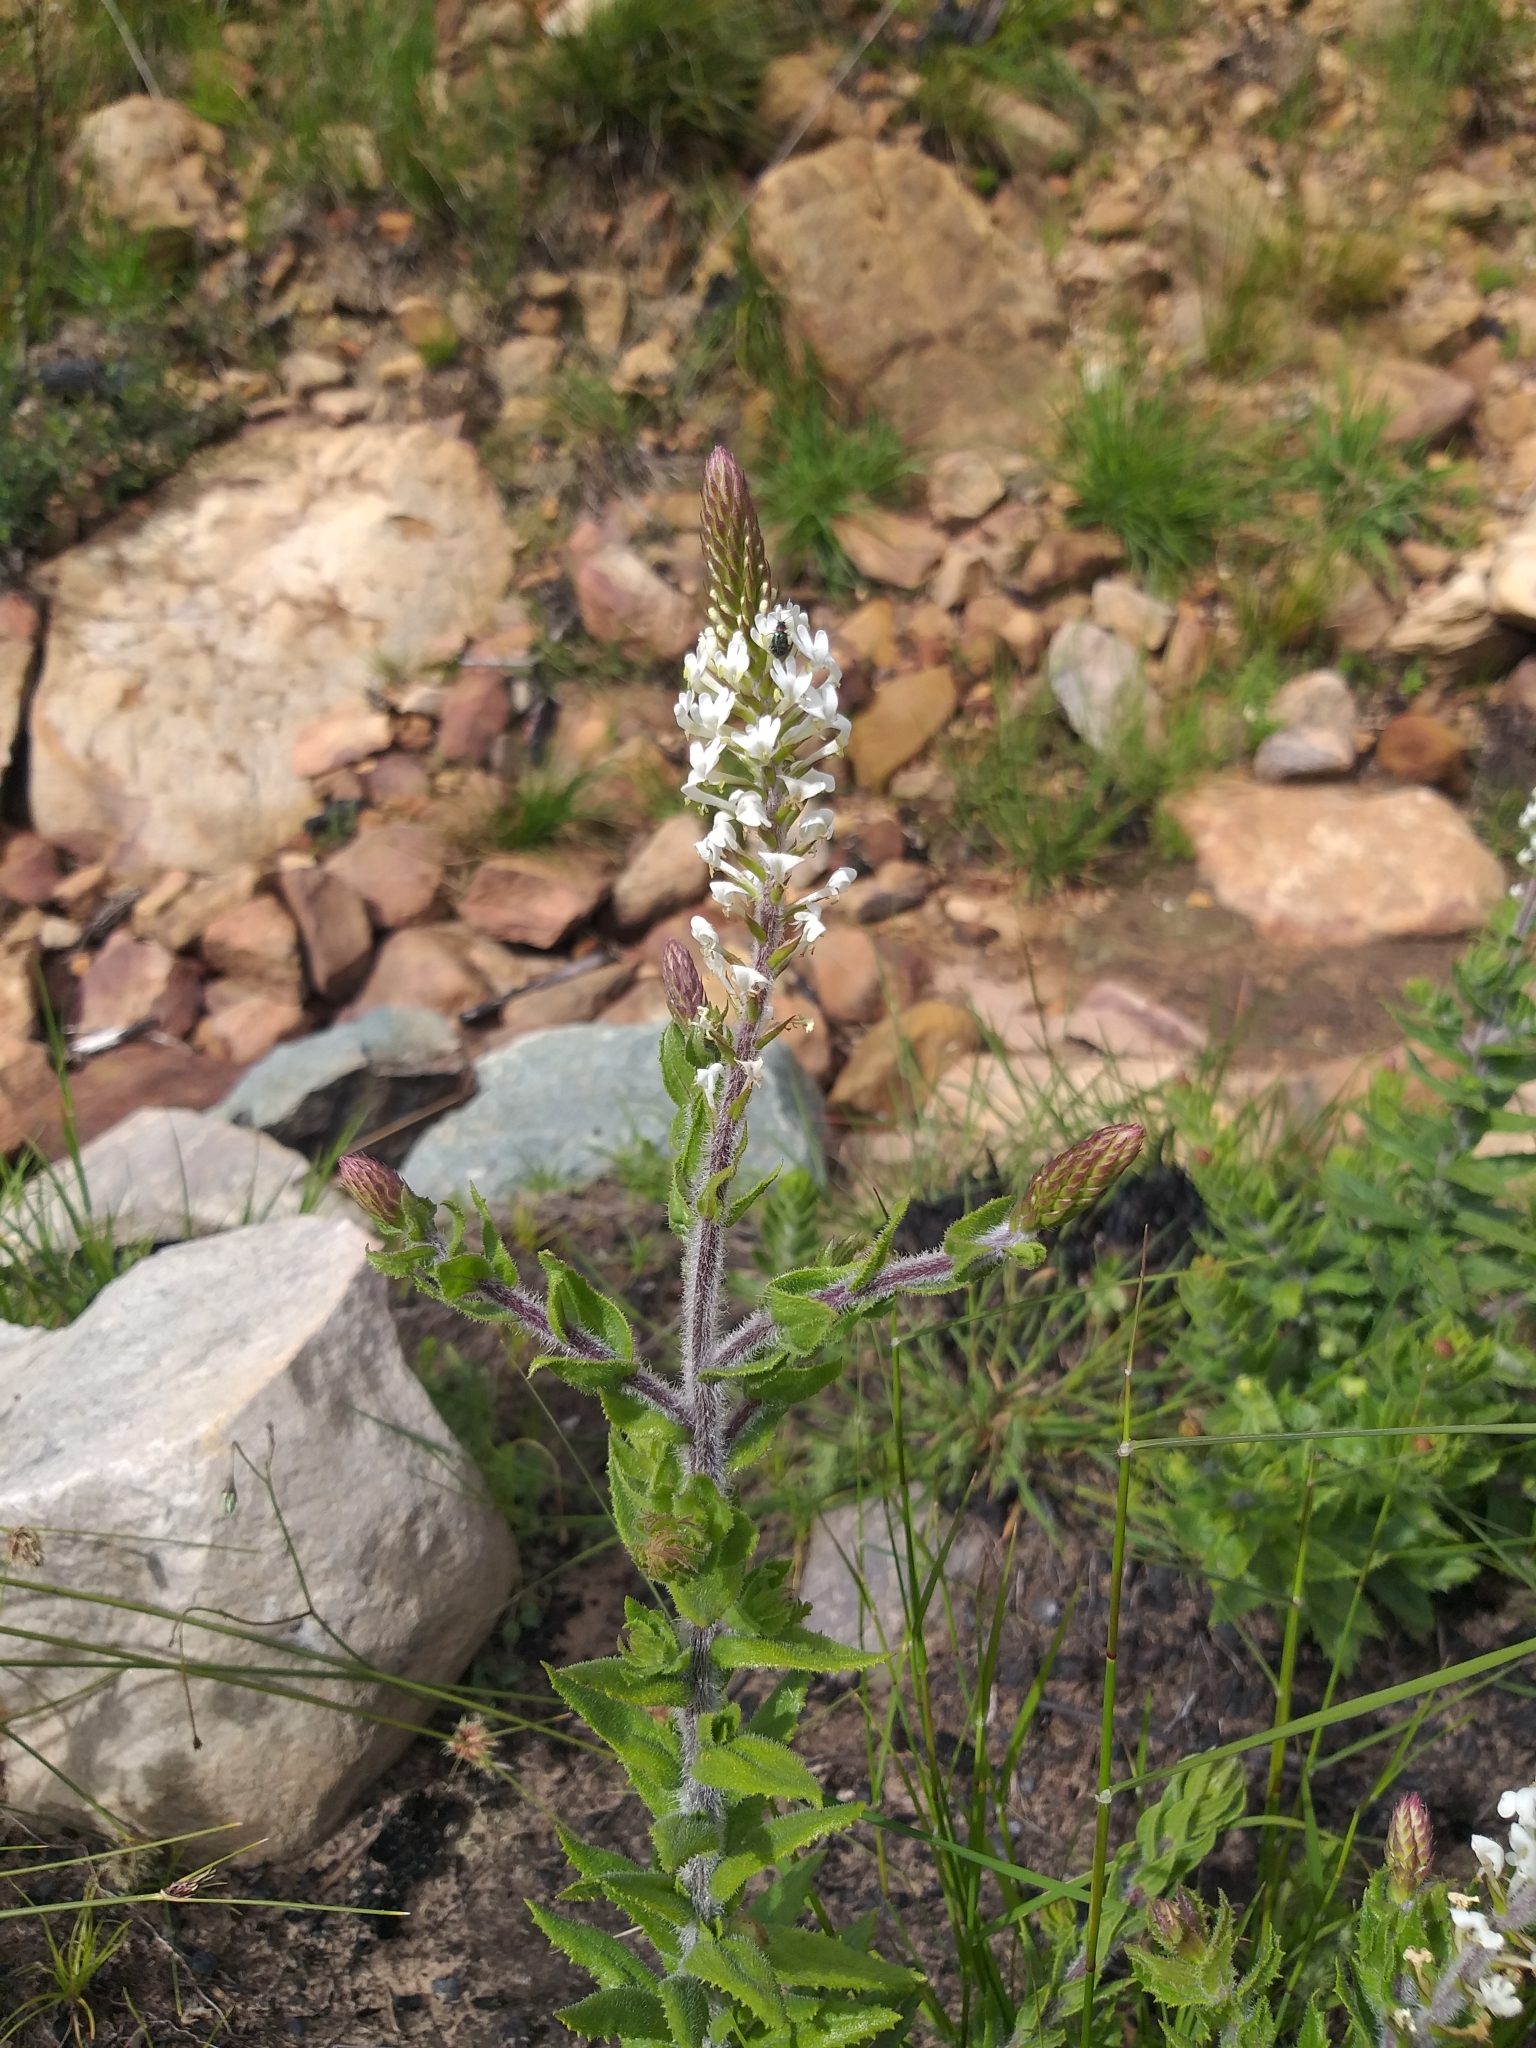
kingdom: Plantae
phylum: Tracheophyta
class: Magnoliopsida
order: Lamiales
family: Scrophulariaceae
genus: Hebenstretia
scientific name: Hebenstretia lanceolata
